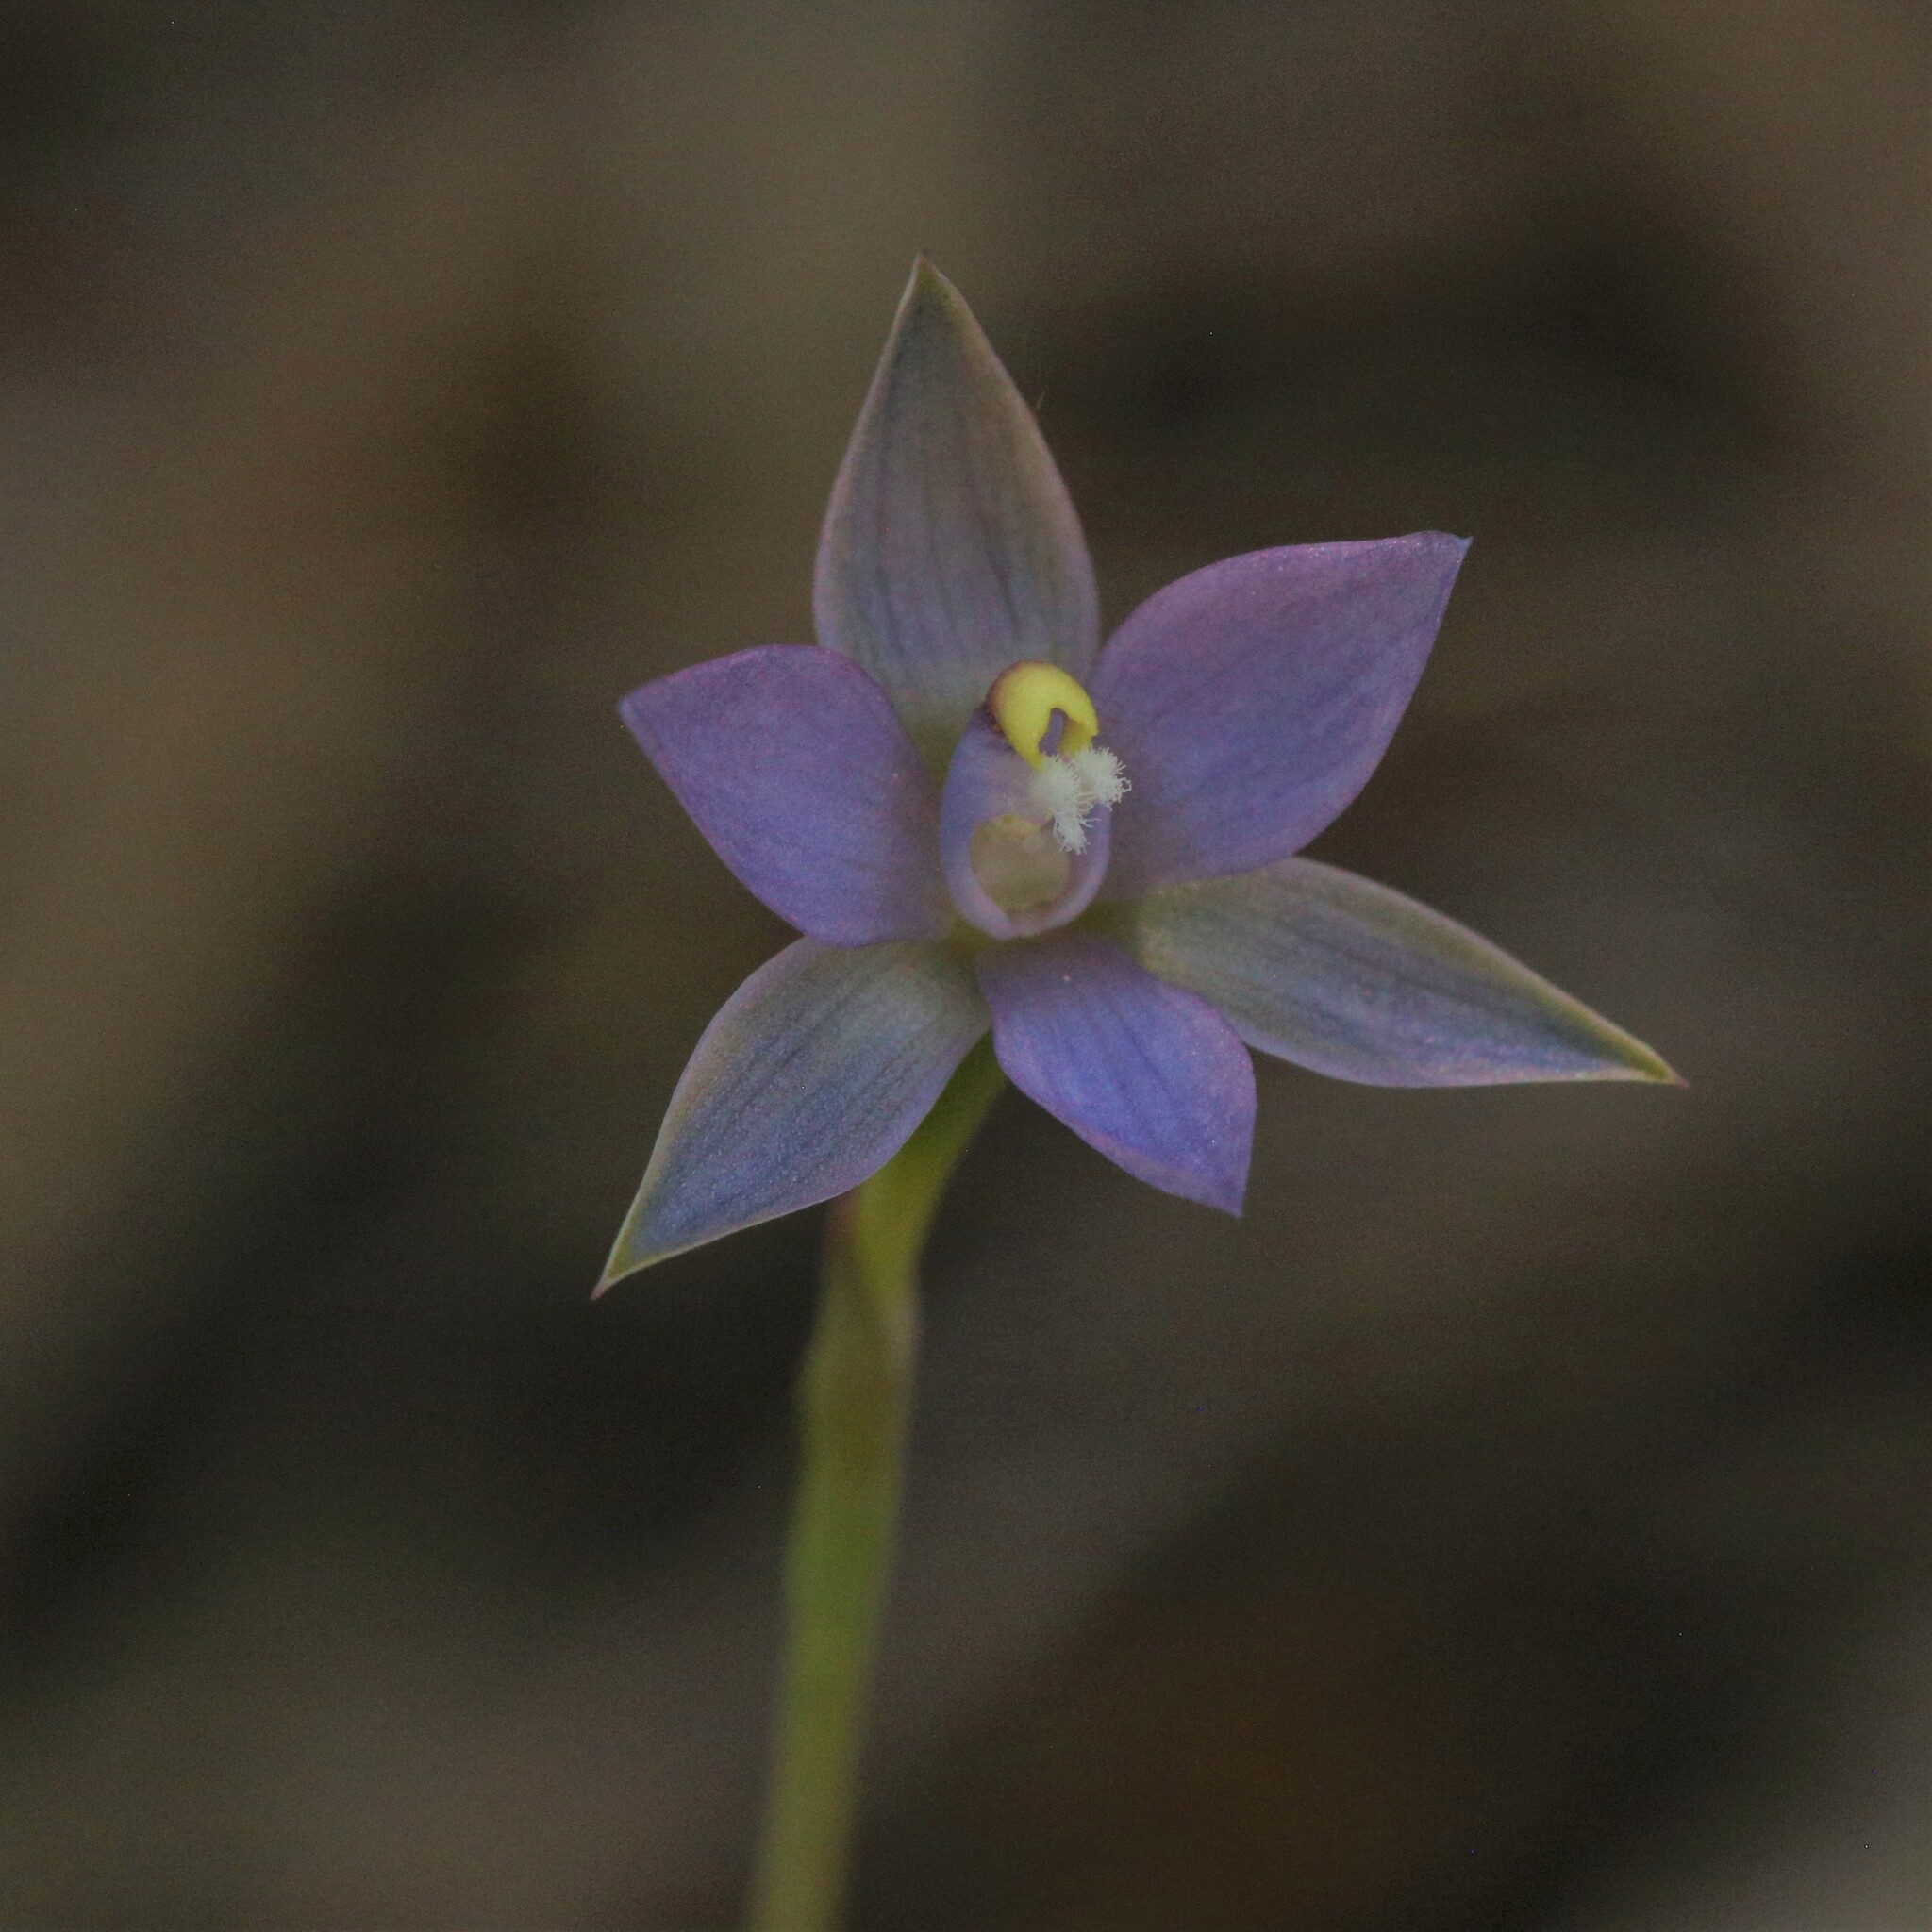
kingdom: Plantae
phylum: Tracheophyta
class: Liliopsida
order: Asparagales
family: Orchidaceae
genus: Thelymitra
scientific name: Thelymitra vulgaris
